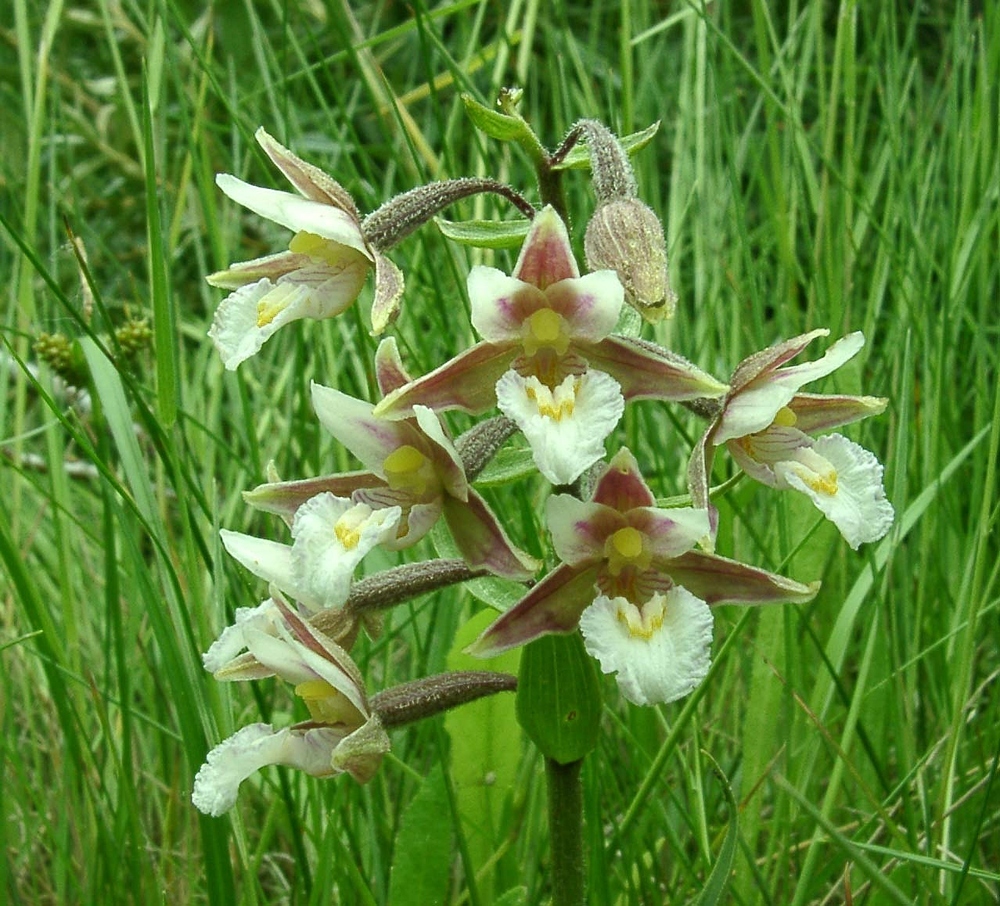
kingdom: Plantae
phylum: Tracheophyta
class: Liliopsida
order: Asparagales
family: Orchidaceae
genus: Epipactis
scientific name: Epipactis palustris
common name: Marsh helleborine
